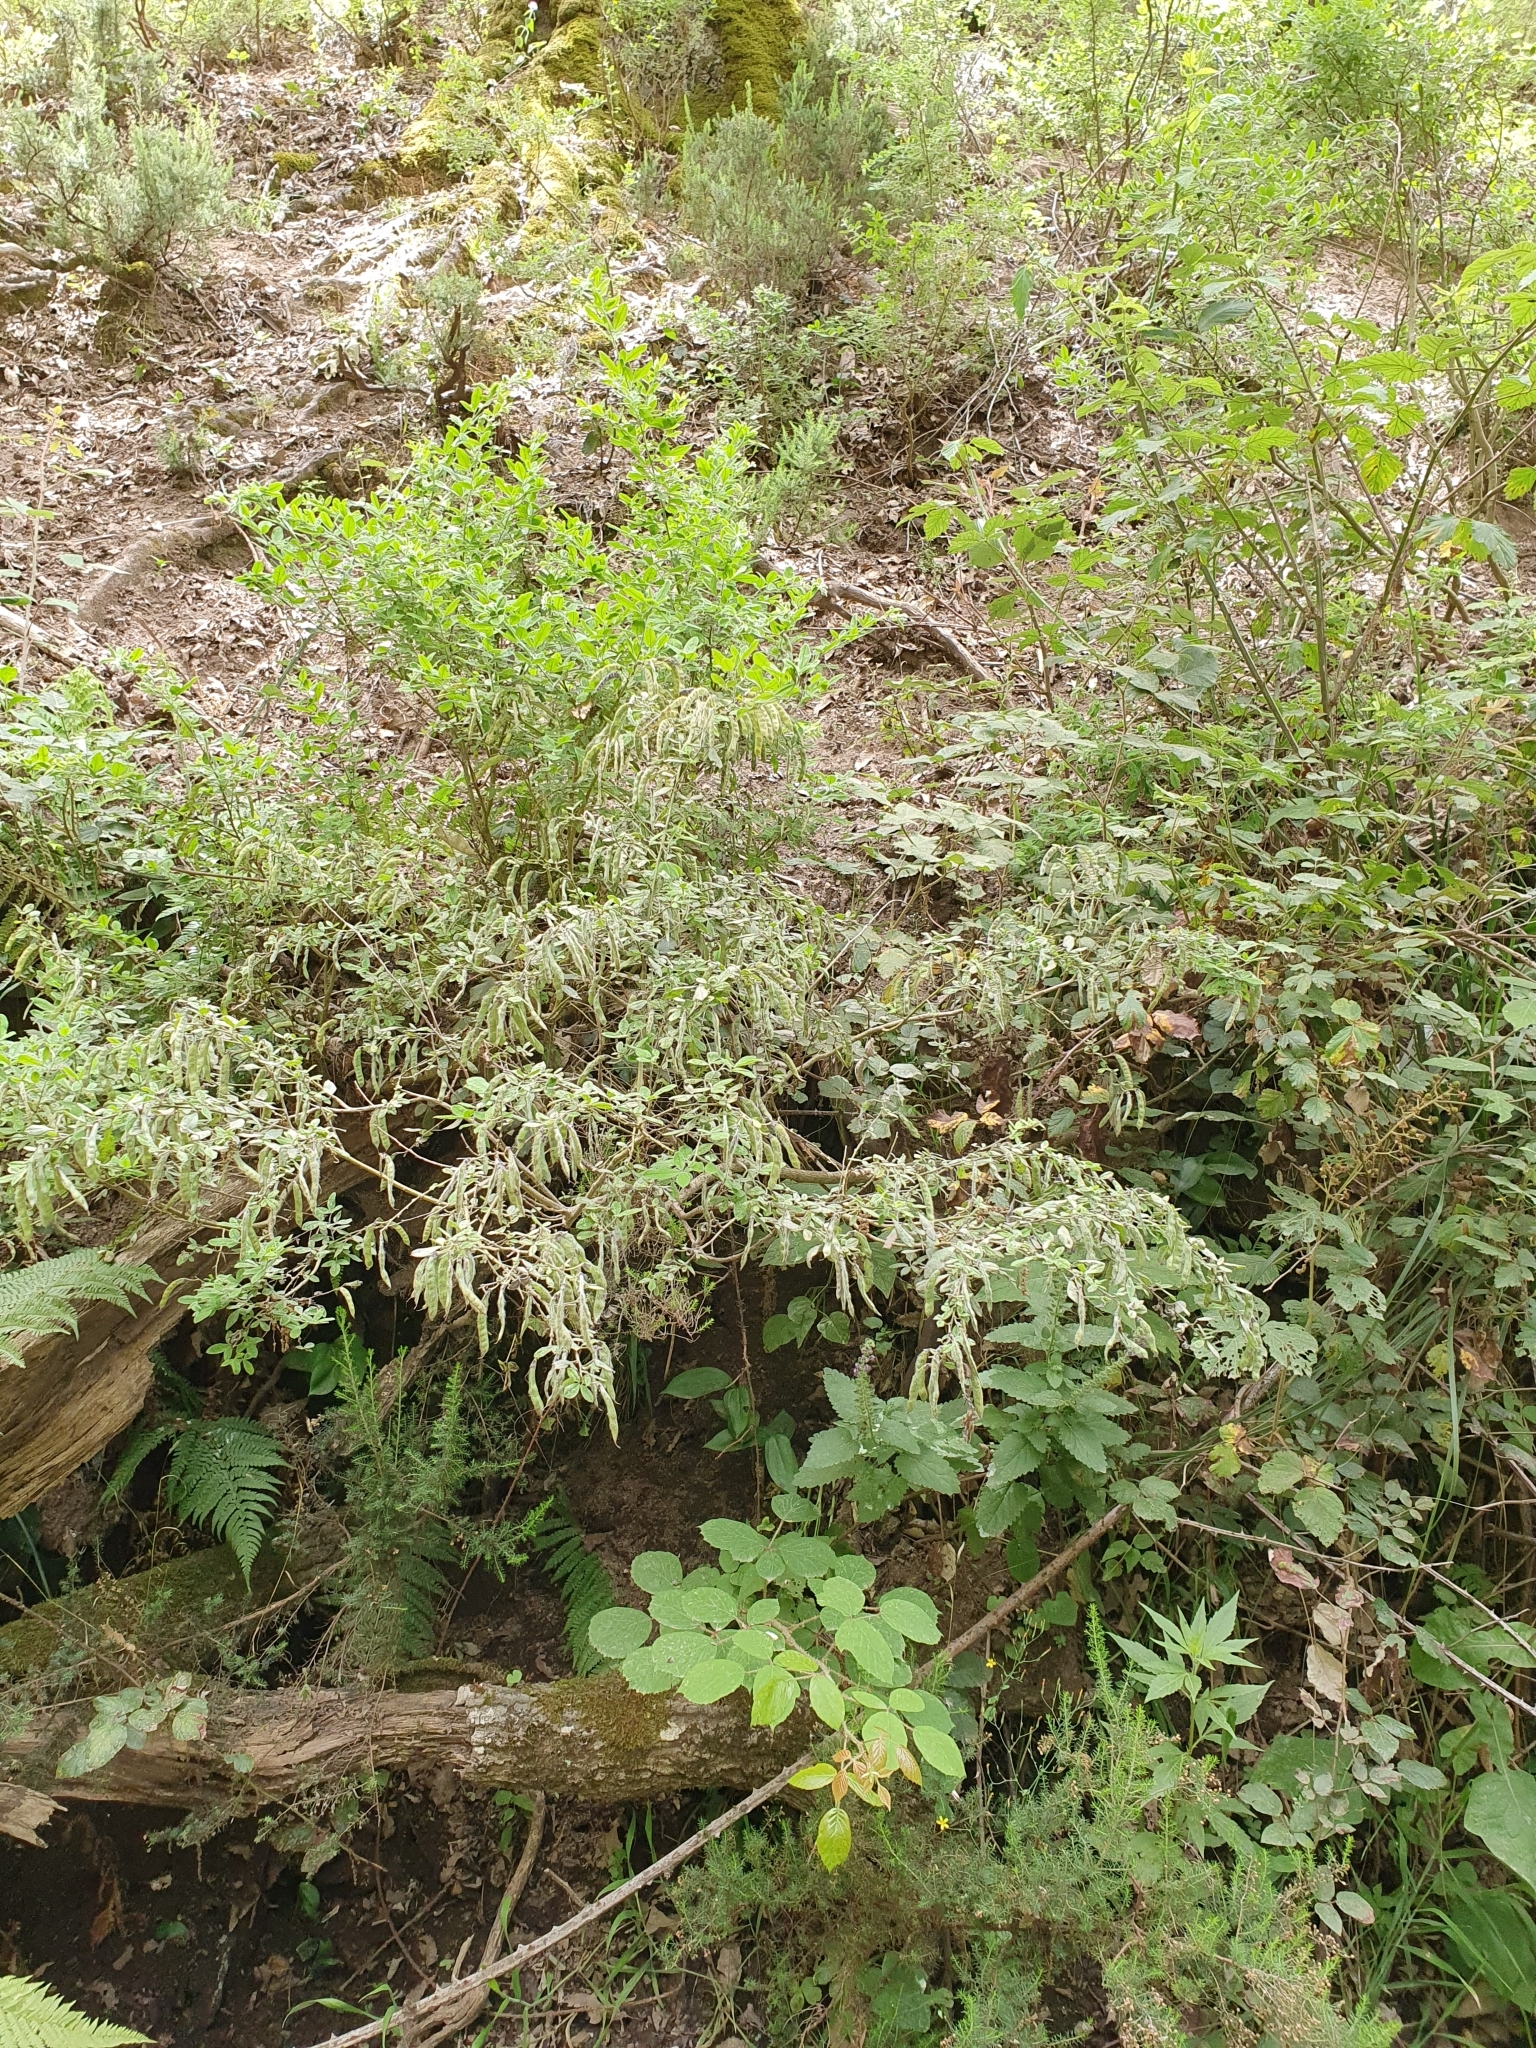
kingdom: Plantae
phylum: Tracheophyta
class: Magnoliopsida
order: Fabales
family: Fabaceae
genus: Cytisus
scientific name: Cytisus villosus
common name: Hairybroom
